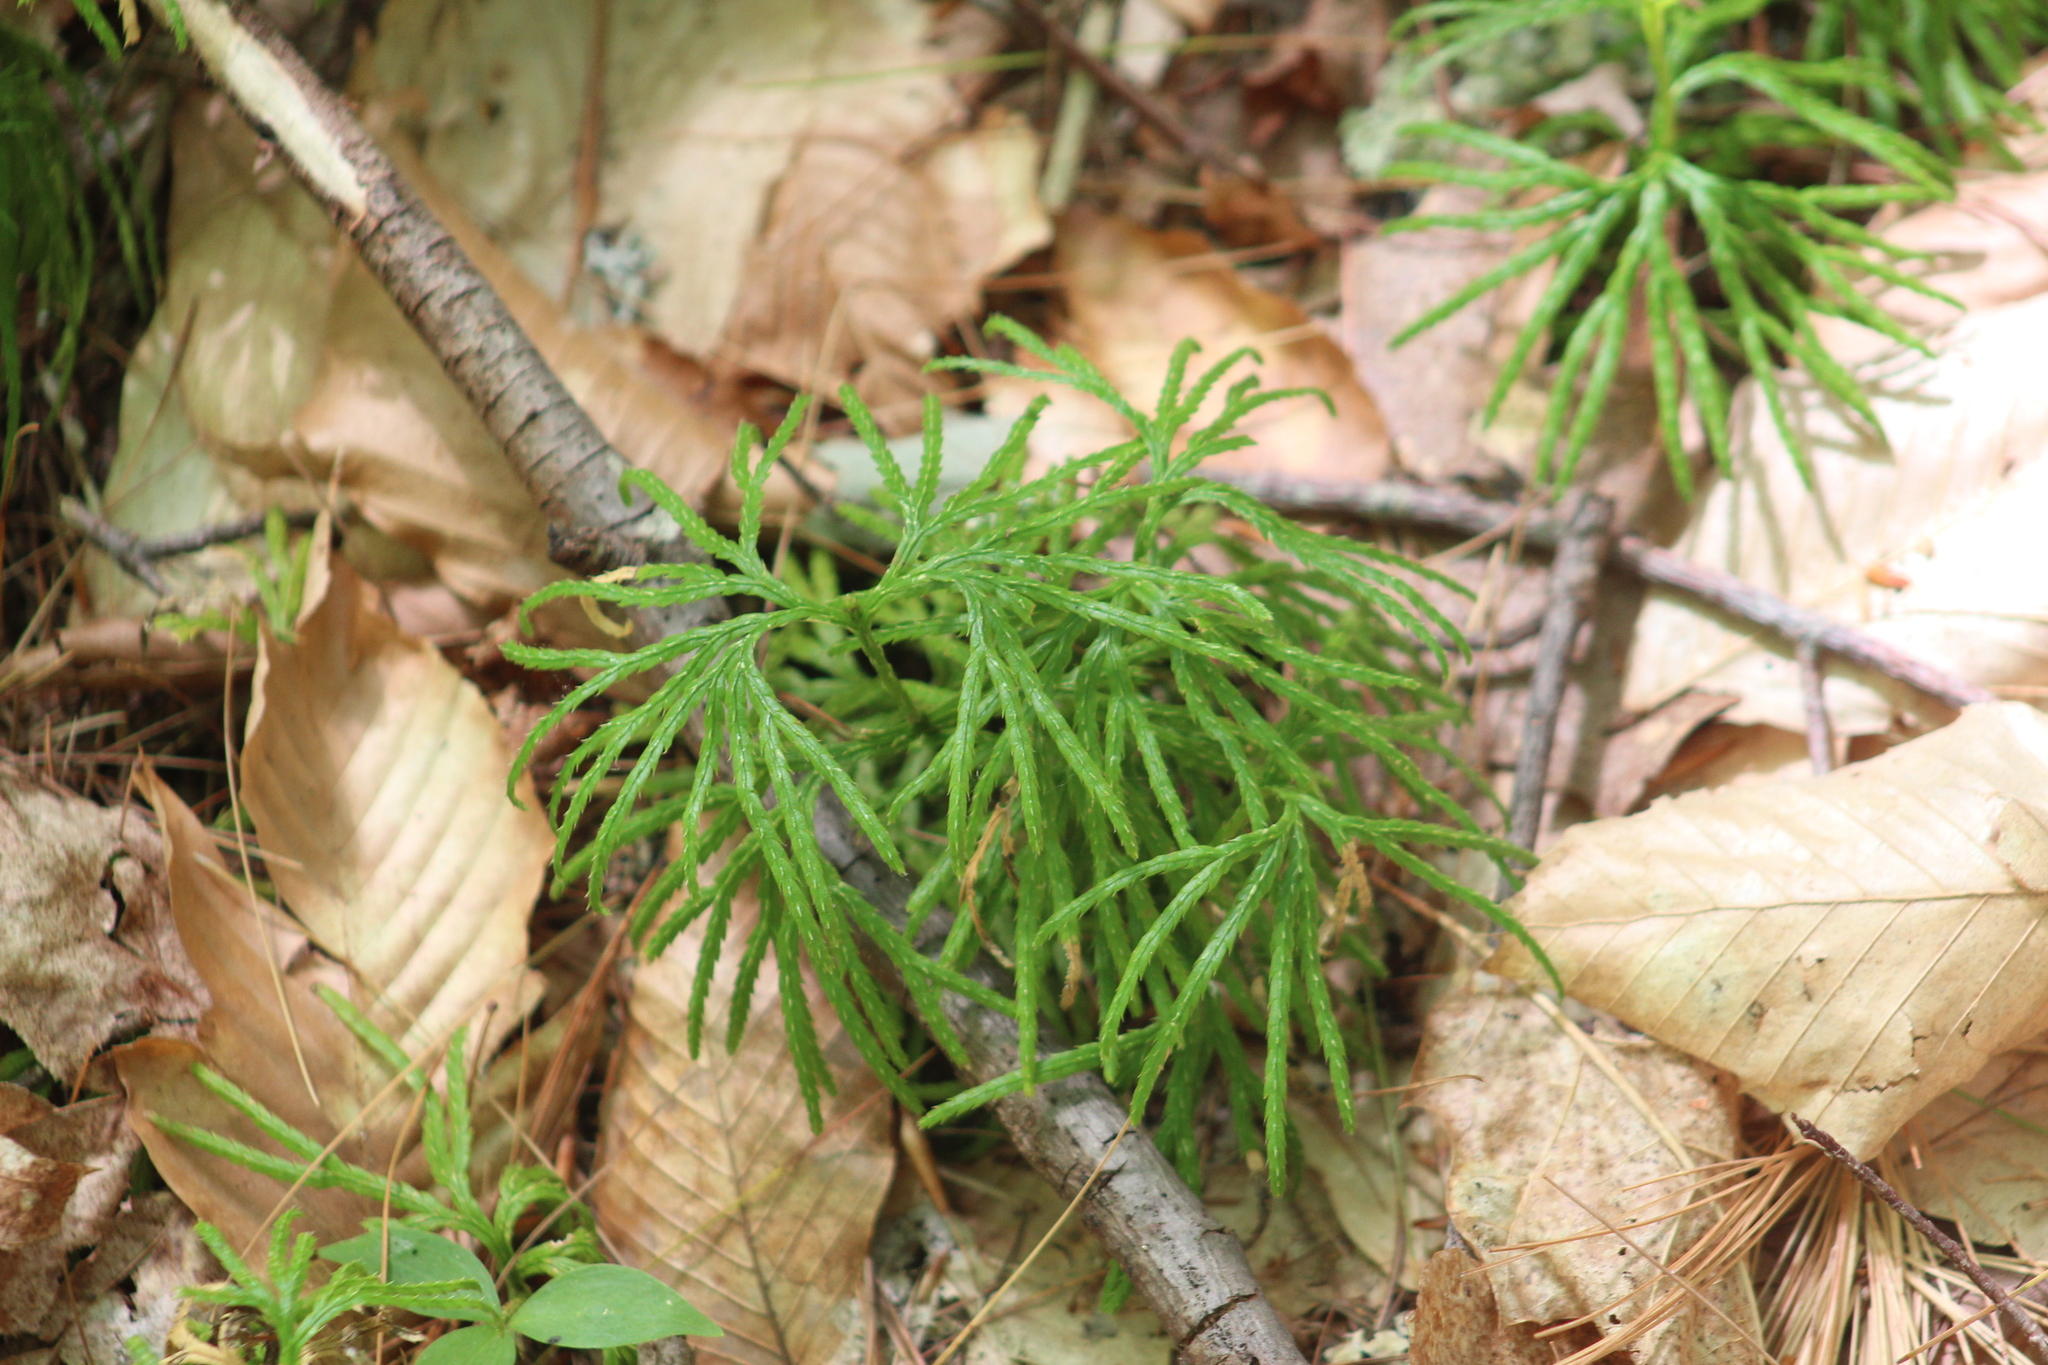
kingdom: Plantae
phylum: Tracheophyta
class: Lycopodiopsida
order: Lycopodiales
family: Lycopodiaceae
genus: Diphasiastrum
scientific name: Diphasiastrum digitatum
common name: Southern running-pine
